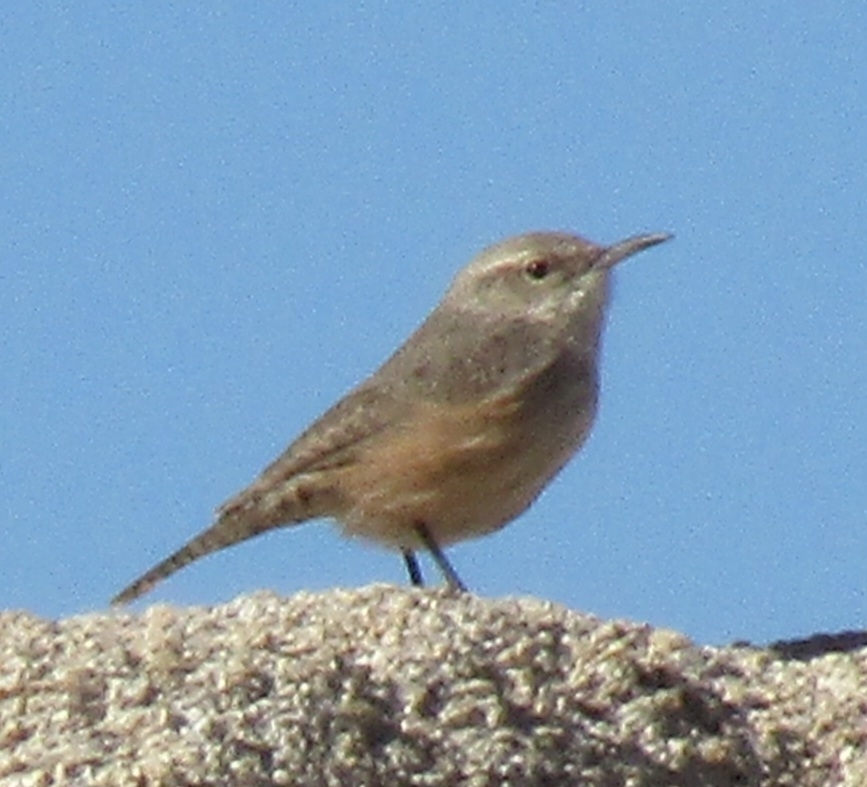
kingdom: Animalia
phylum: Chordata
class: Aves
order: Passeriformes
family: Troglodytidae
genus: Salpinctes
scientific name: Salpinctes obsoletus
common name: Rock wren
